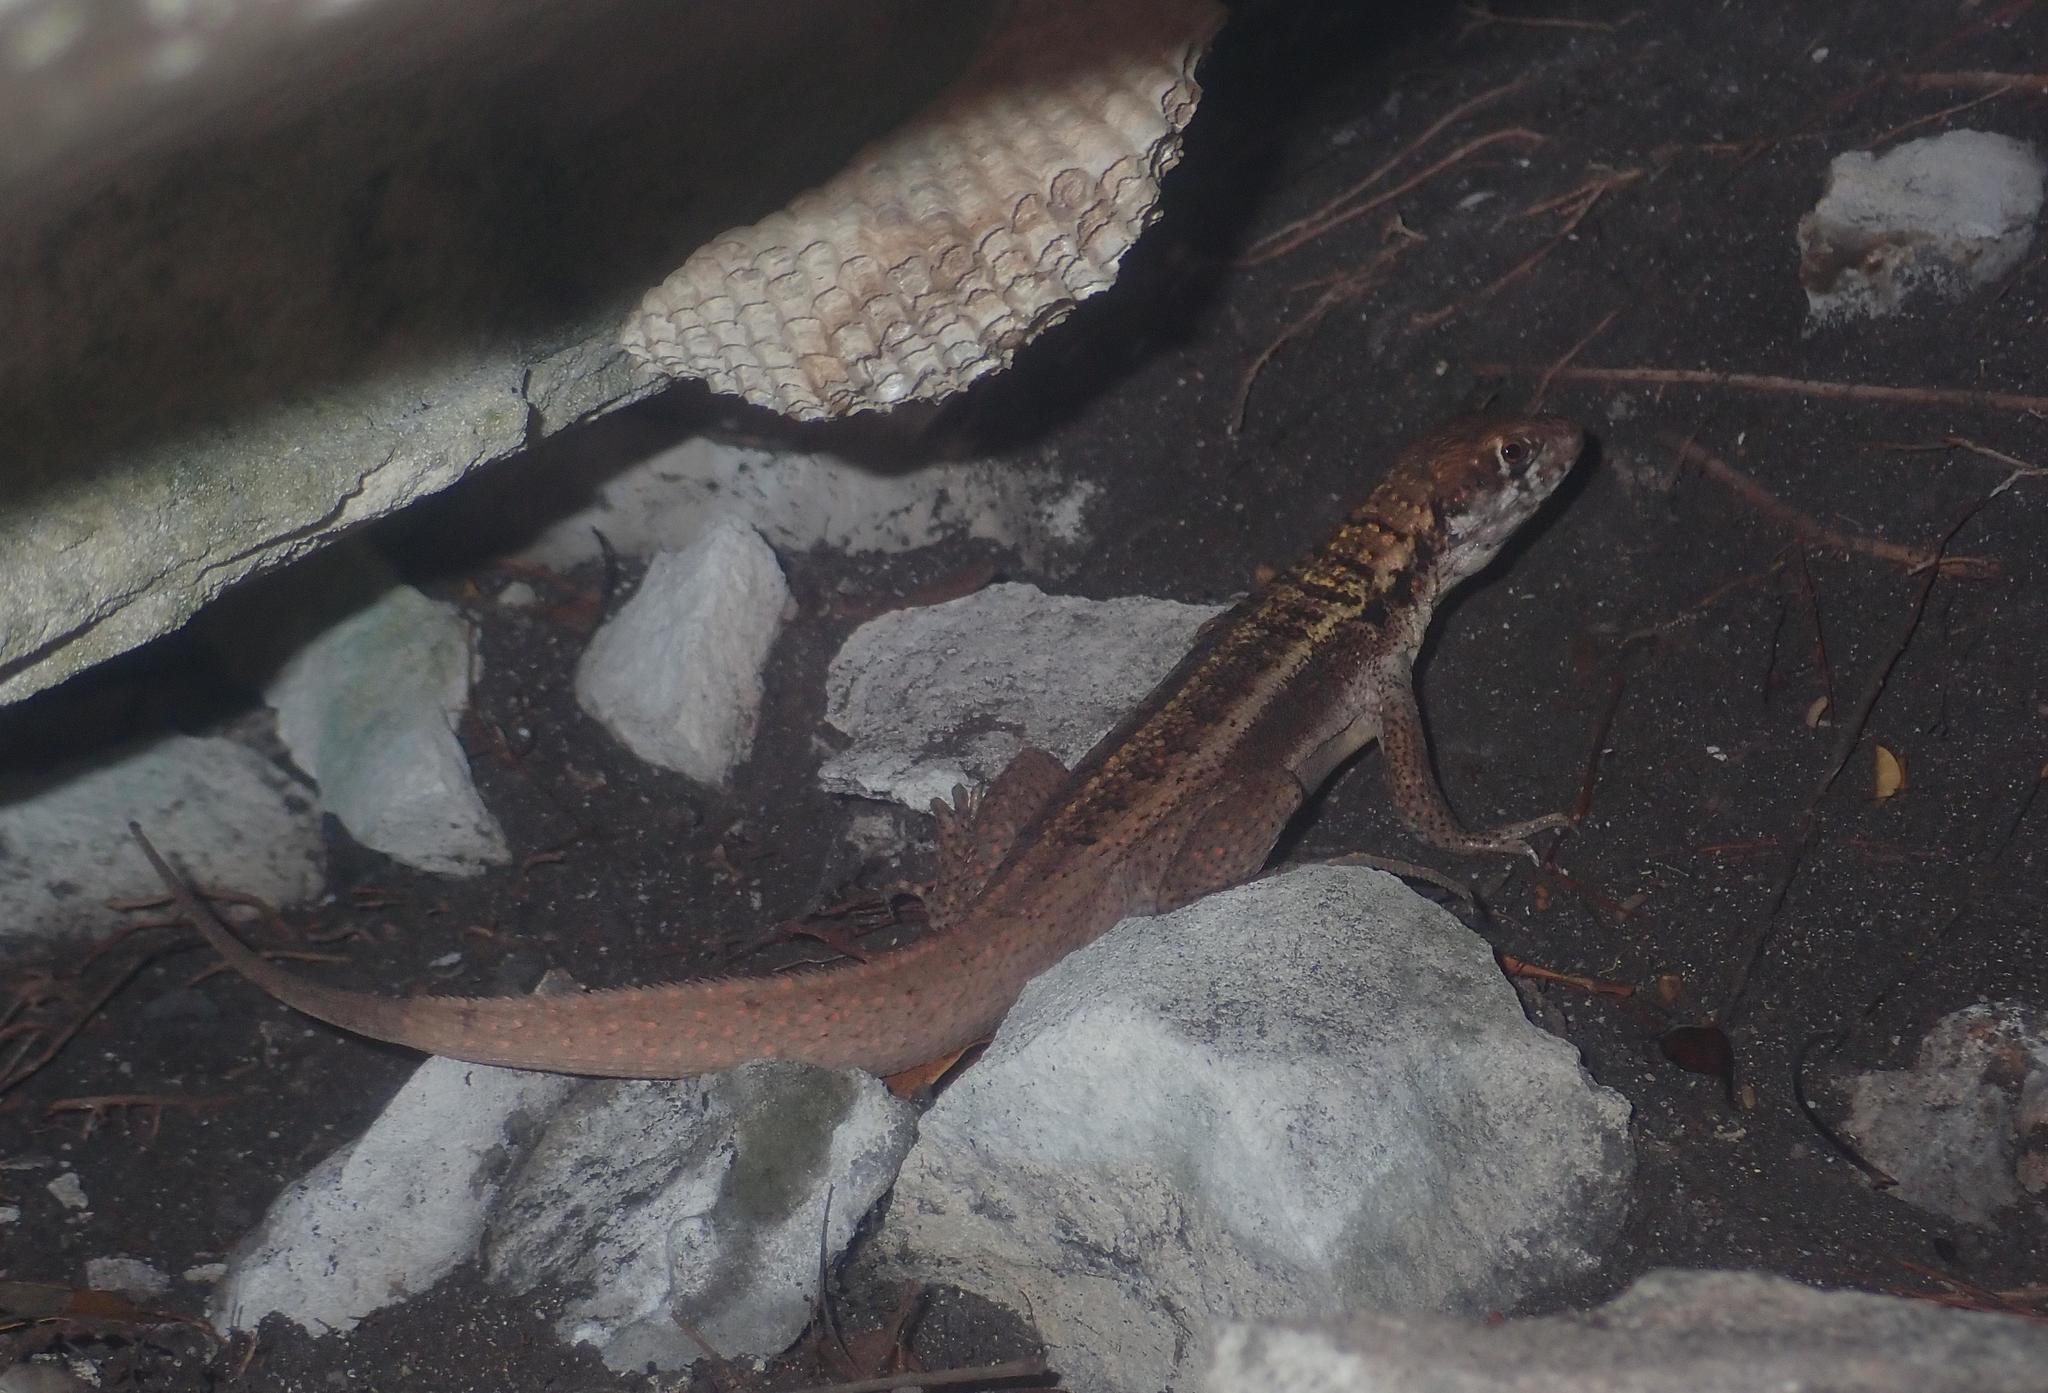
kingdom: Animalia
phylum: Chordata
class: Squamata
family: Leiocephalidae
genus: Leiocephalus
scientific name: Leiocephalus psammodromus
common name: Bastion cay curlytail lizard
